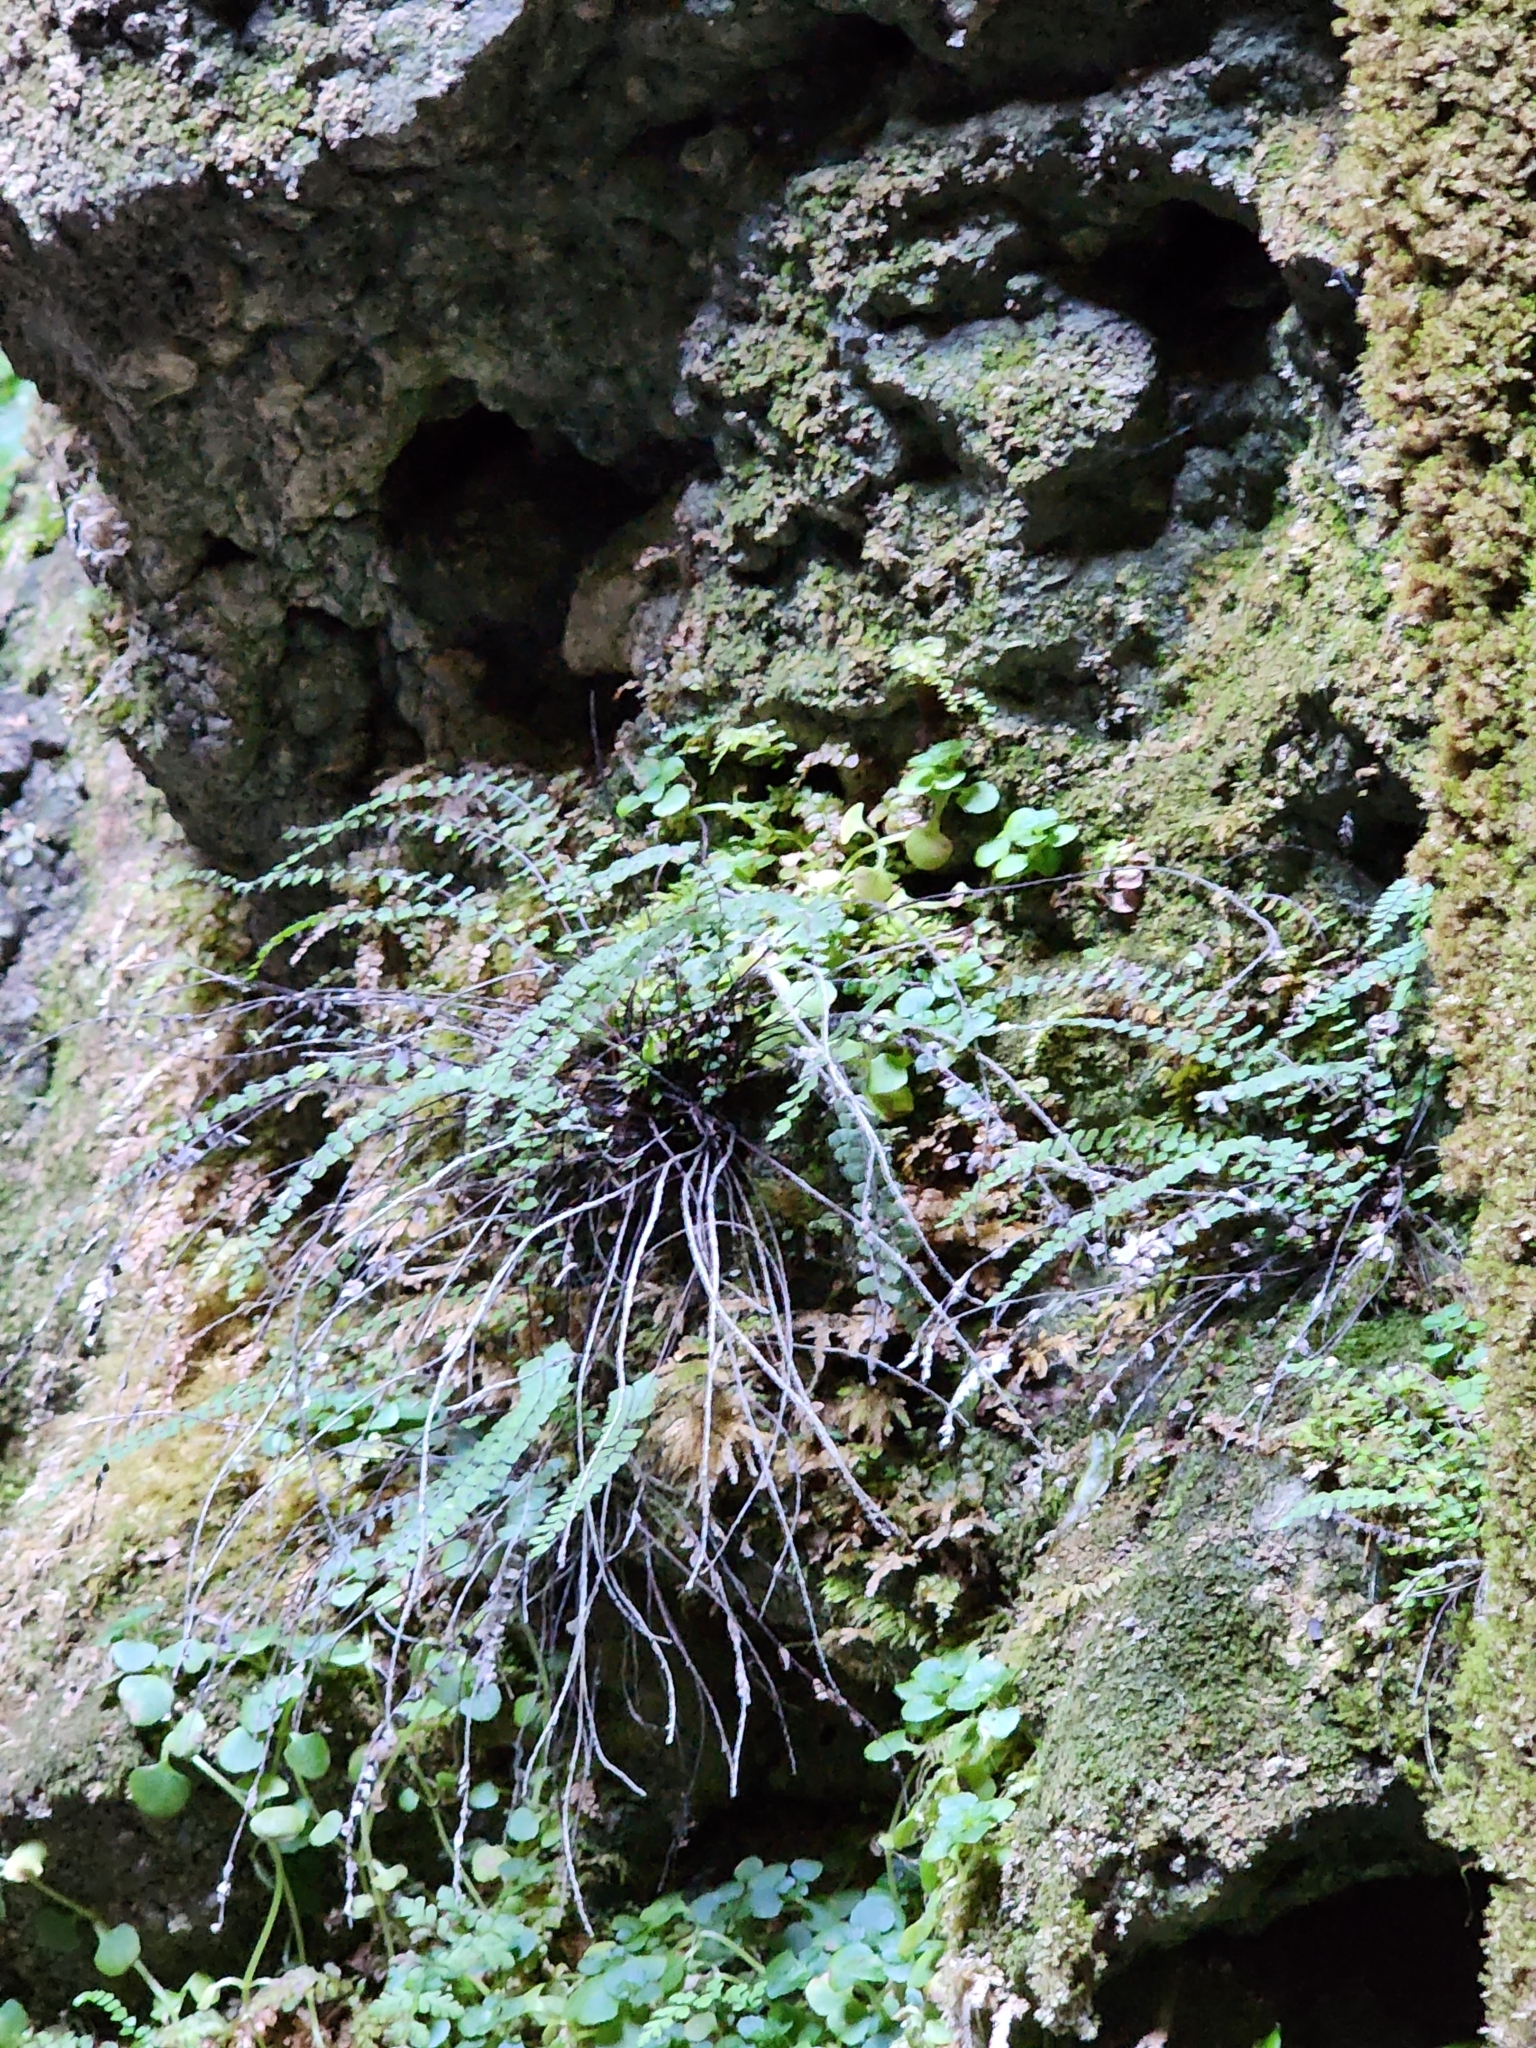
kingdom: Plantae
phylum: Tracheophyta
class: Polypodiopsida
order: Polypodiales
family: Aspleniaceae
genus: Asplenium
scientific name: Asplenium trichomanes
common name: Maidenhair spleenwort
